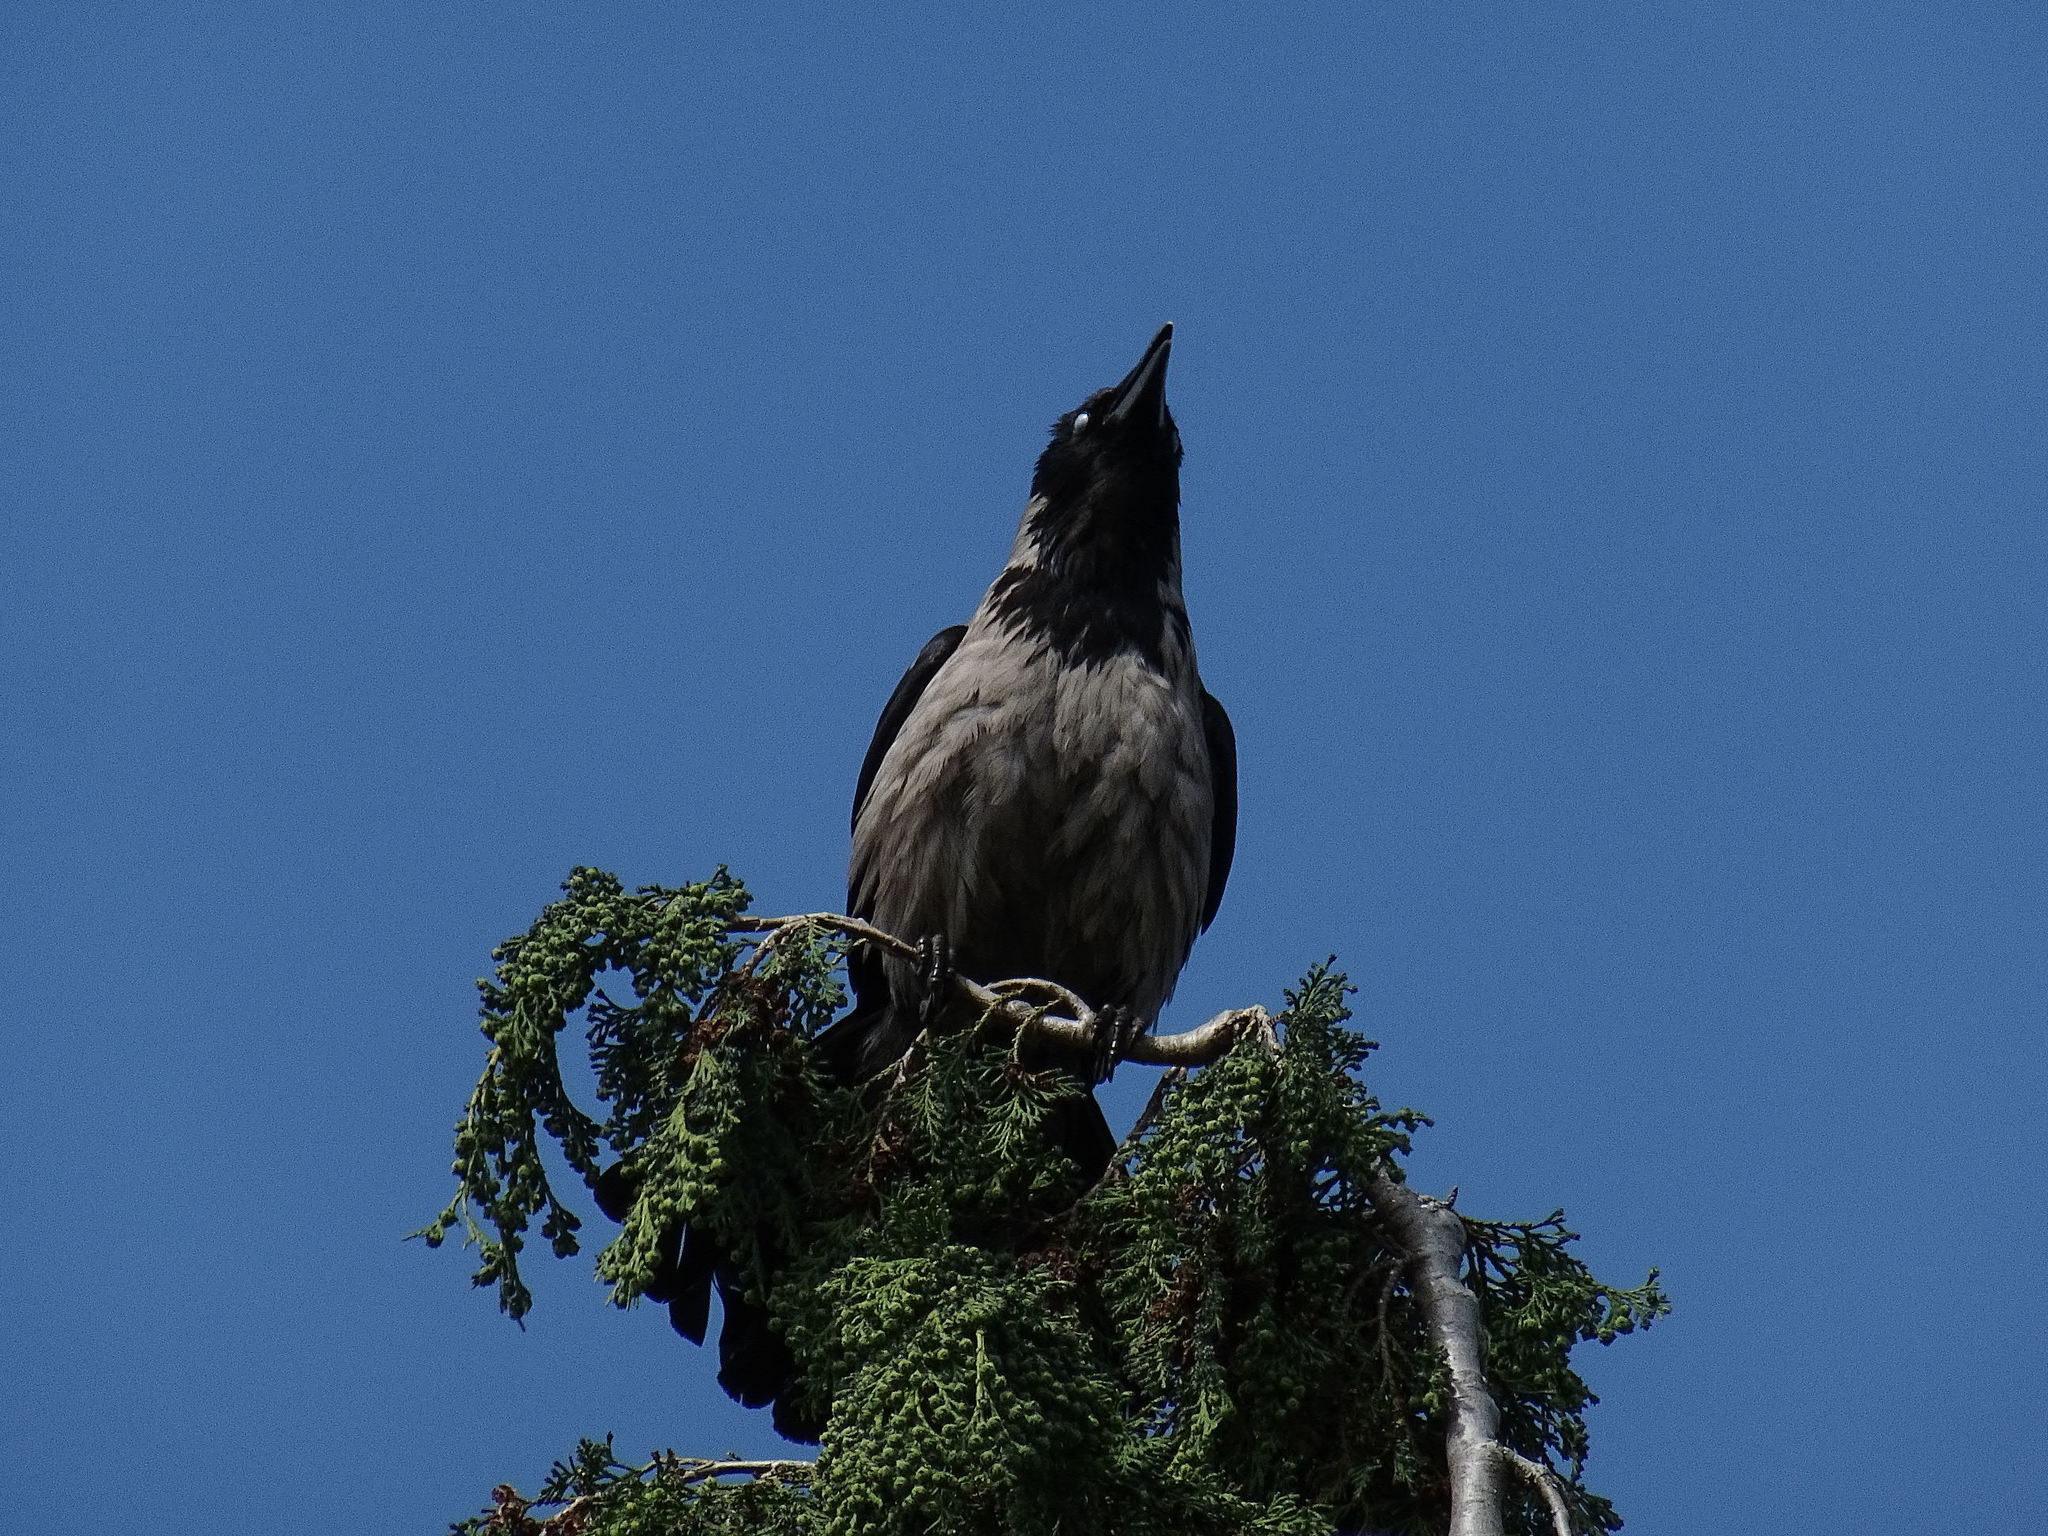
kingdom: Animalia
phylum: Chordata
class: Aves
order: Passeriformes
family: Corvidae
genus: Corvus
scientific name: Corvus cornix
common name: Hooded crow
